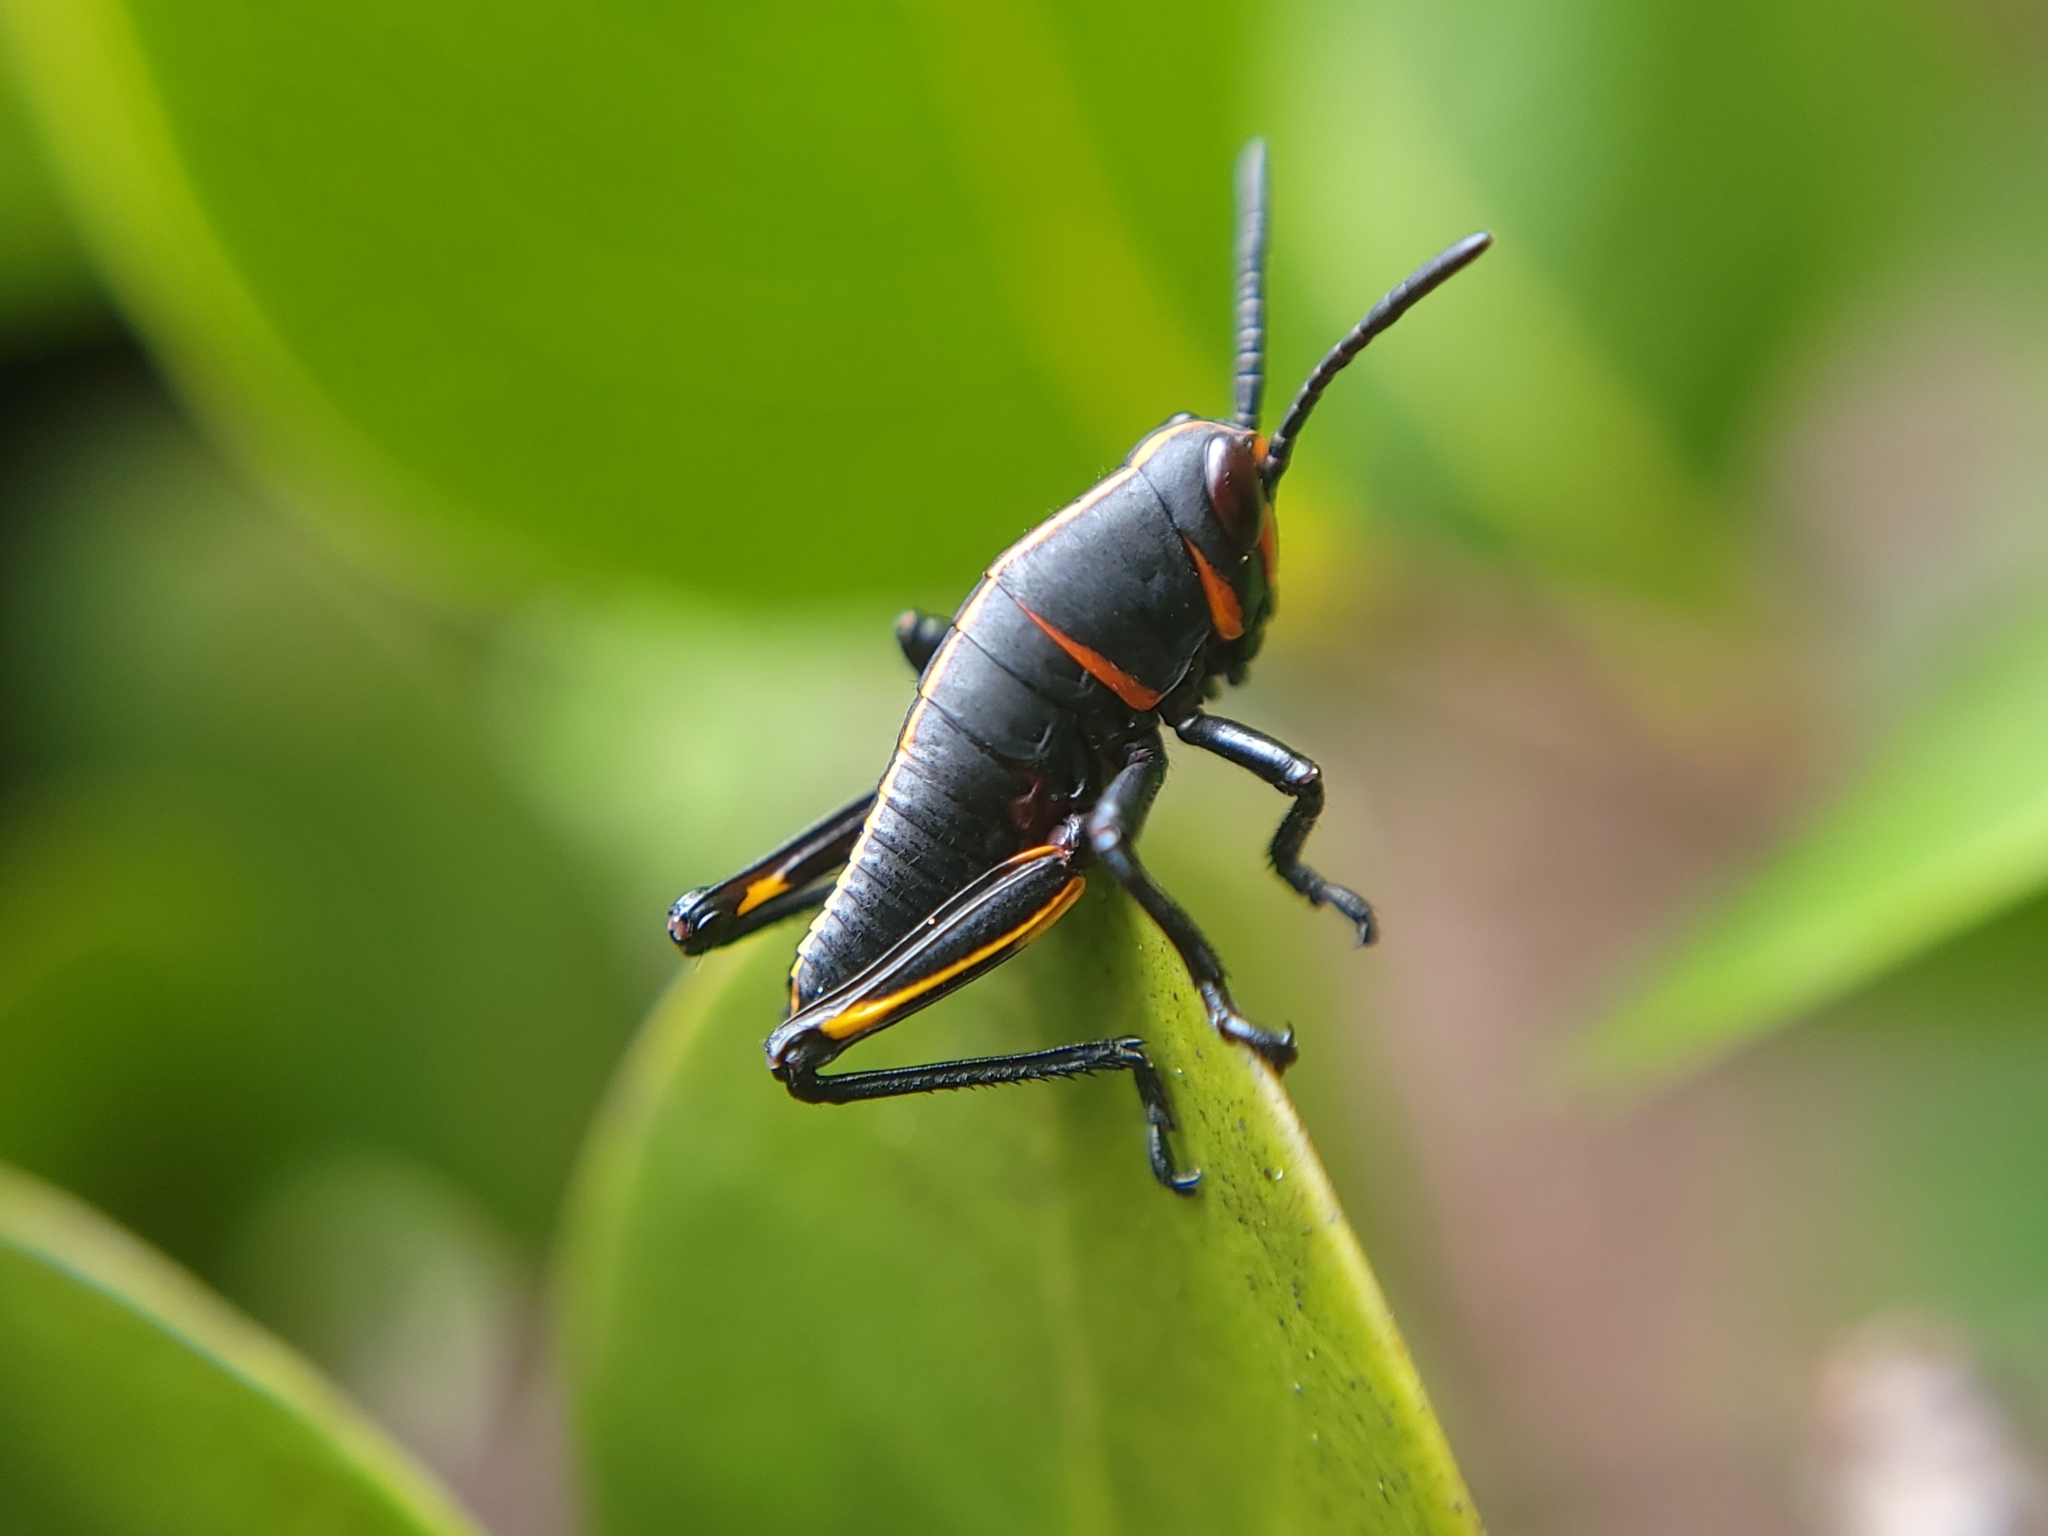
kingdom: Animalia
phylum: Arthropoda
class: Insecta
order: Orthoptera
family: Romaleidae
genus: Romalea
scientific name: Romalea microptera
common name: Eastern lubber grasshopper
